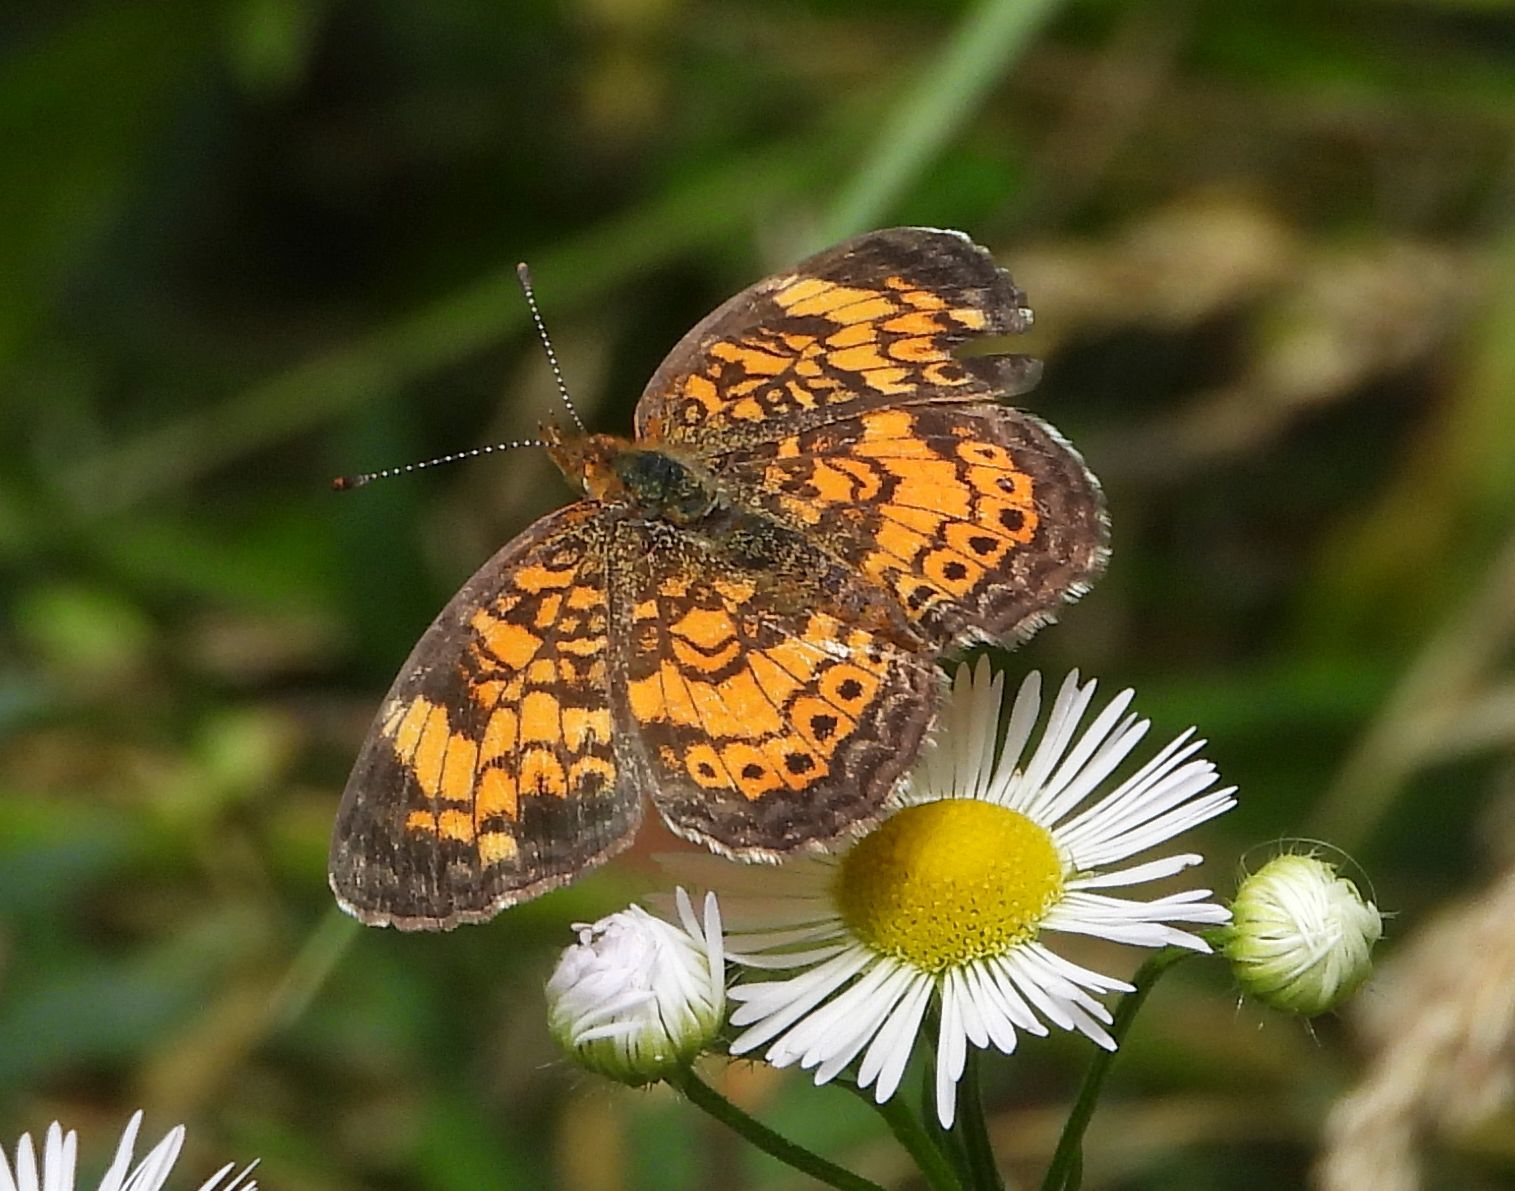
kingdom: Animalia
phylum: Arthropoda
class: Insecta
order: Lepidoptera
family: Nymphalidae
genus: Phyciodes
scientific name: Phyciodes tharos
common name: Pearl crescent
